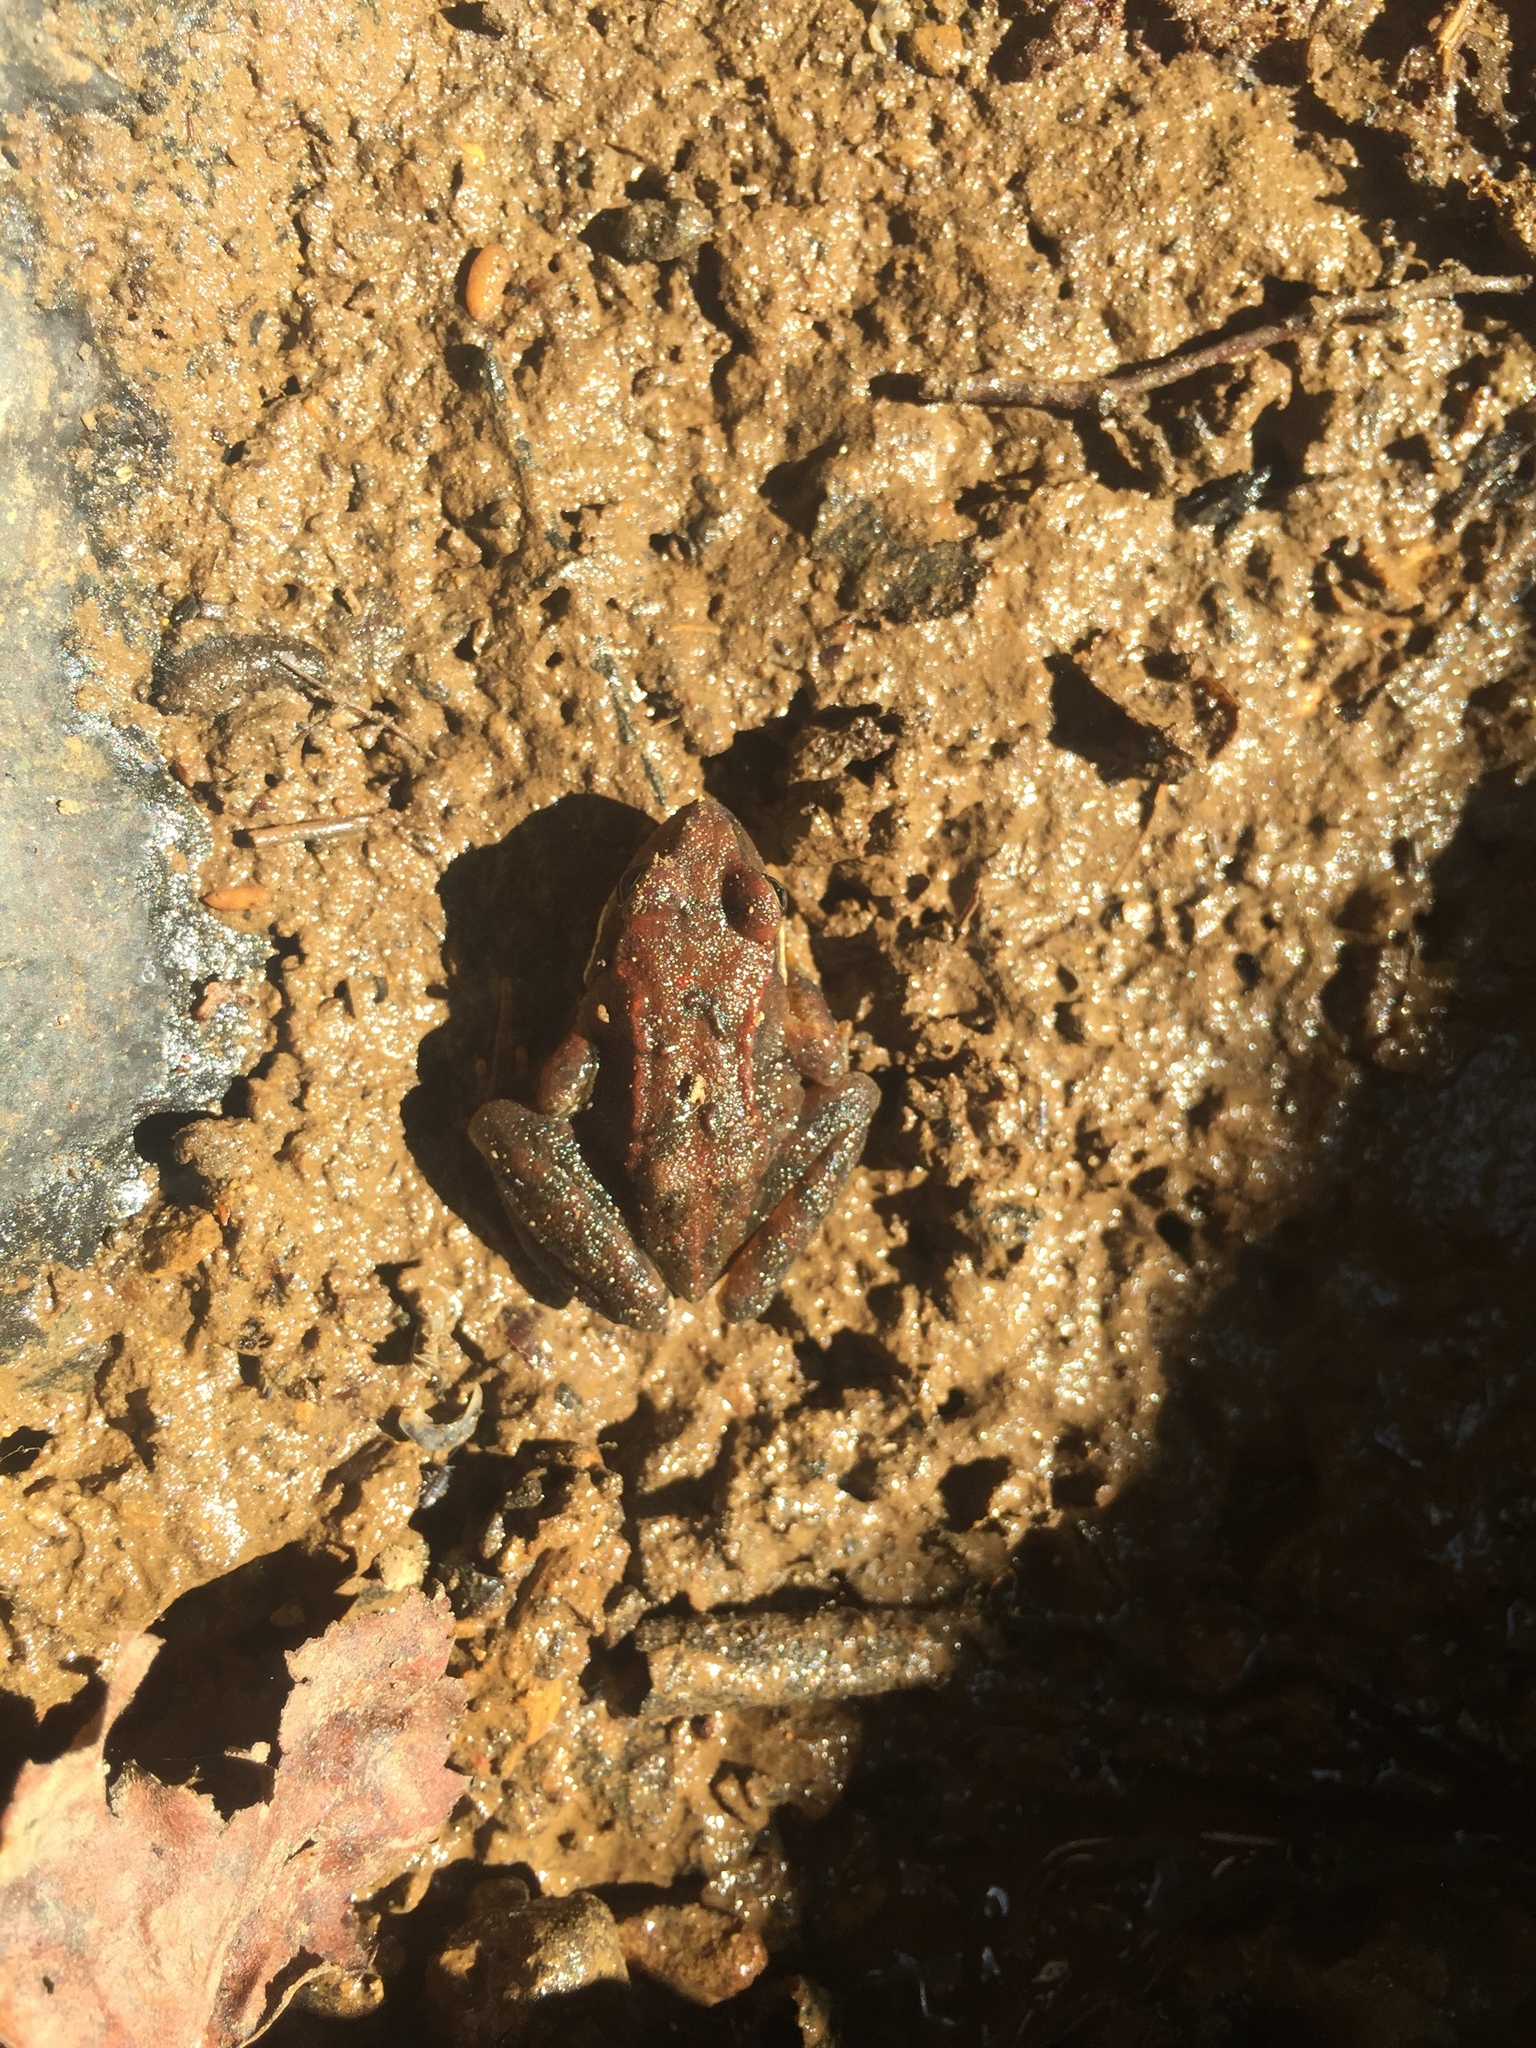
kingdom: Animalia
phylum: Chordata
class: Amphibia
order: Anura
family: Ranidae
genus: Rana
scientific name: Rana temporaria
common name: Common frog
